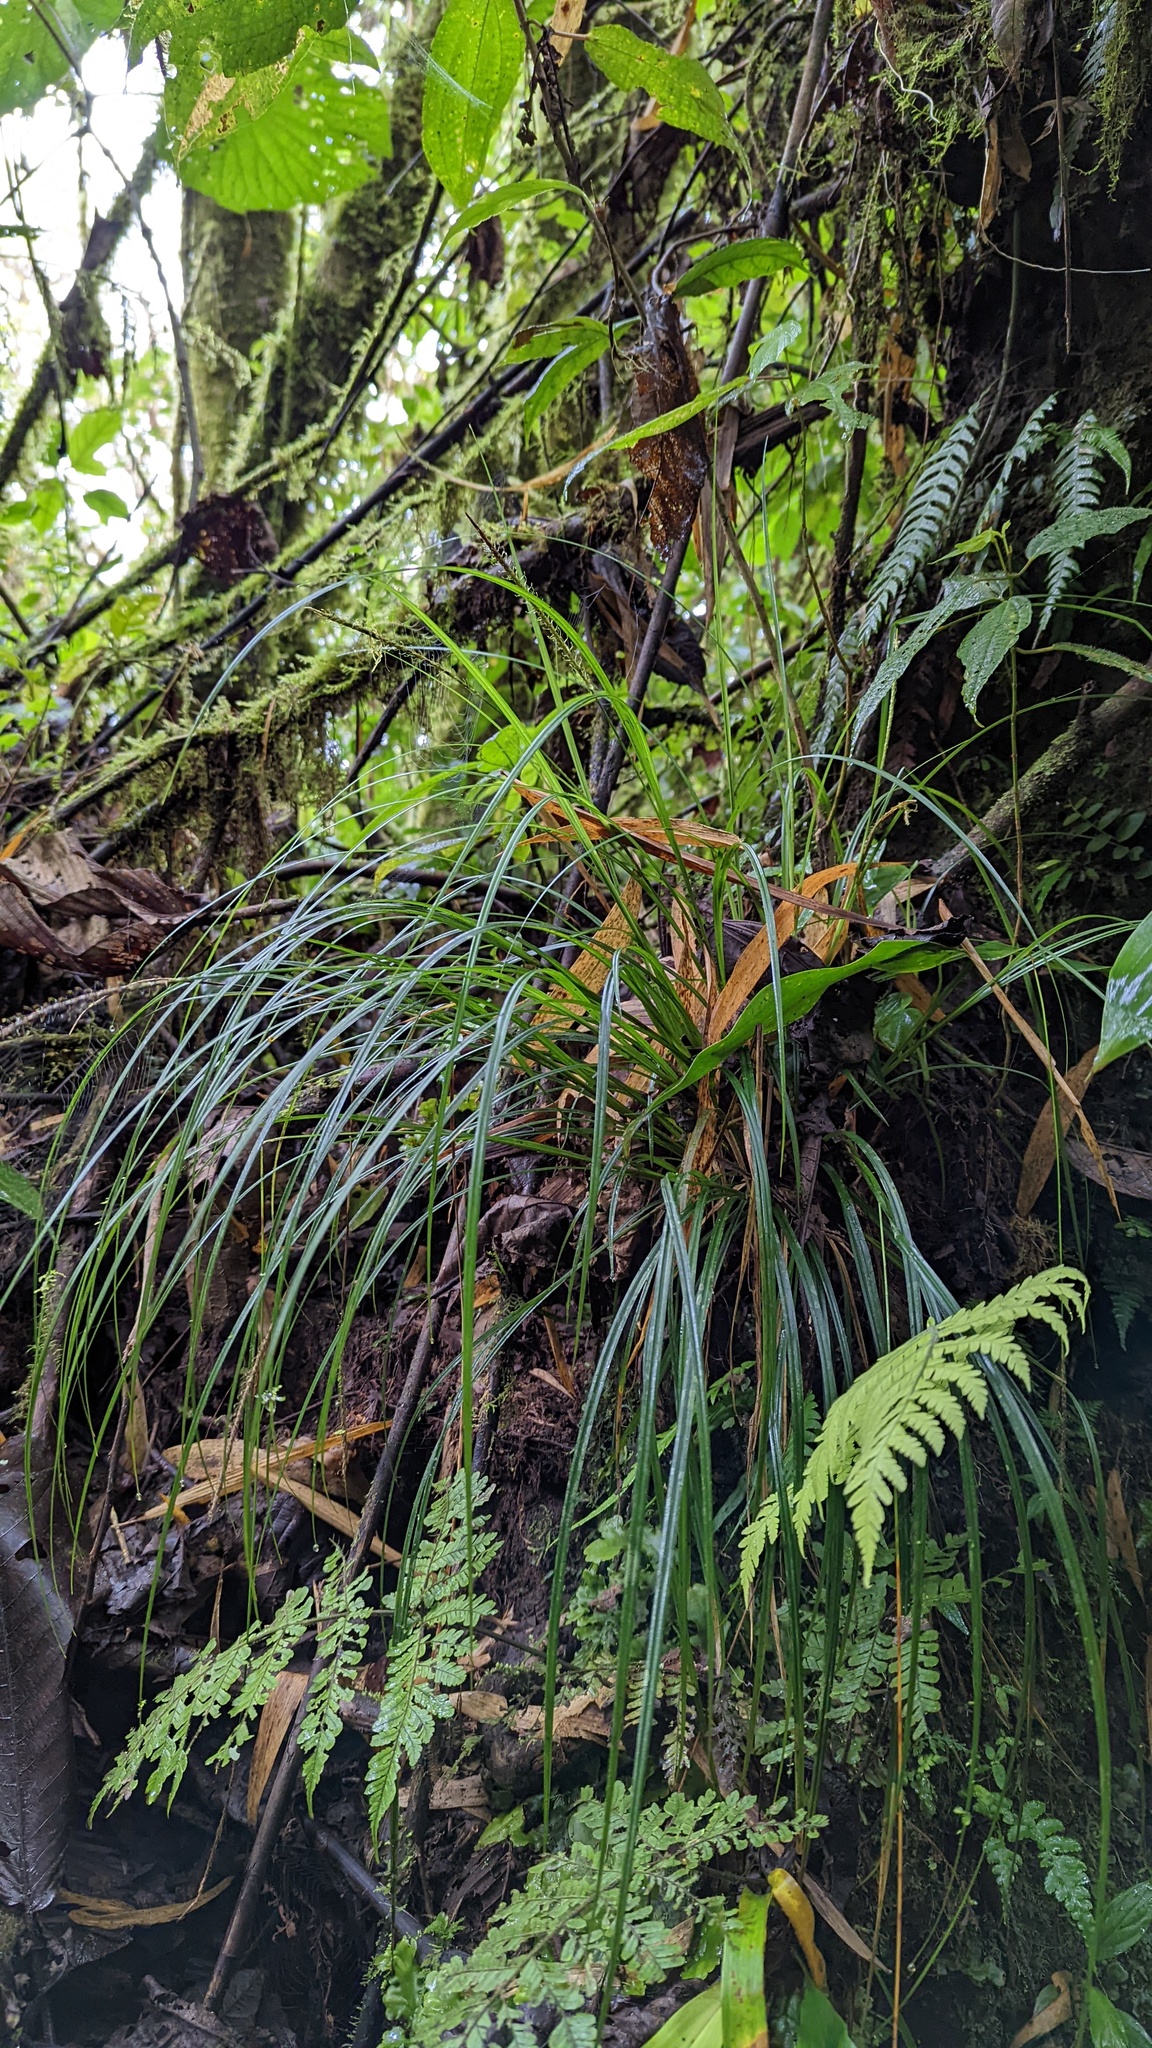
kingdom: Plantae
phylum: Tracheophyta
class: Liliopsida
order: Poales
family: Cyperaceae
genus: Carex
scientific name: Carex hamata
